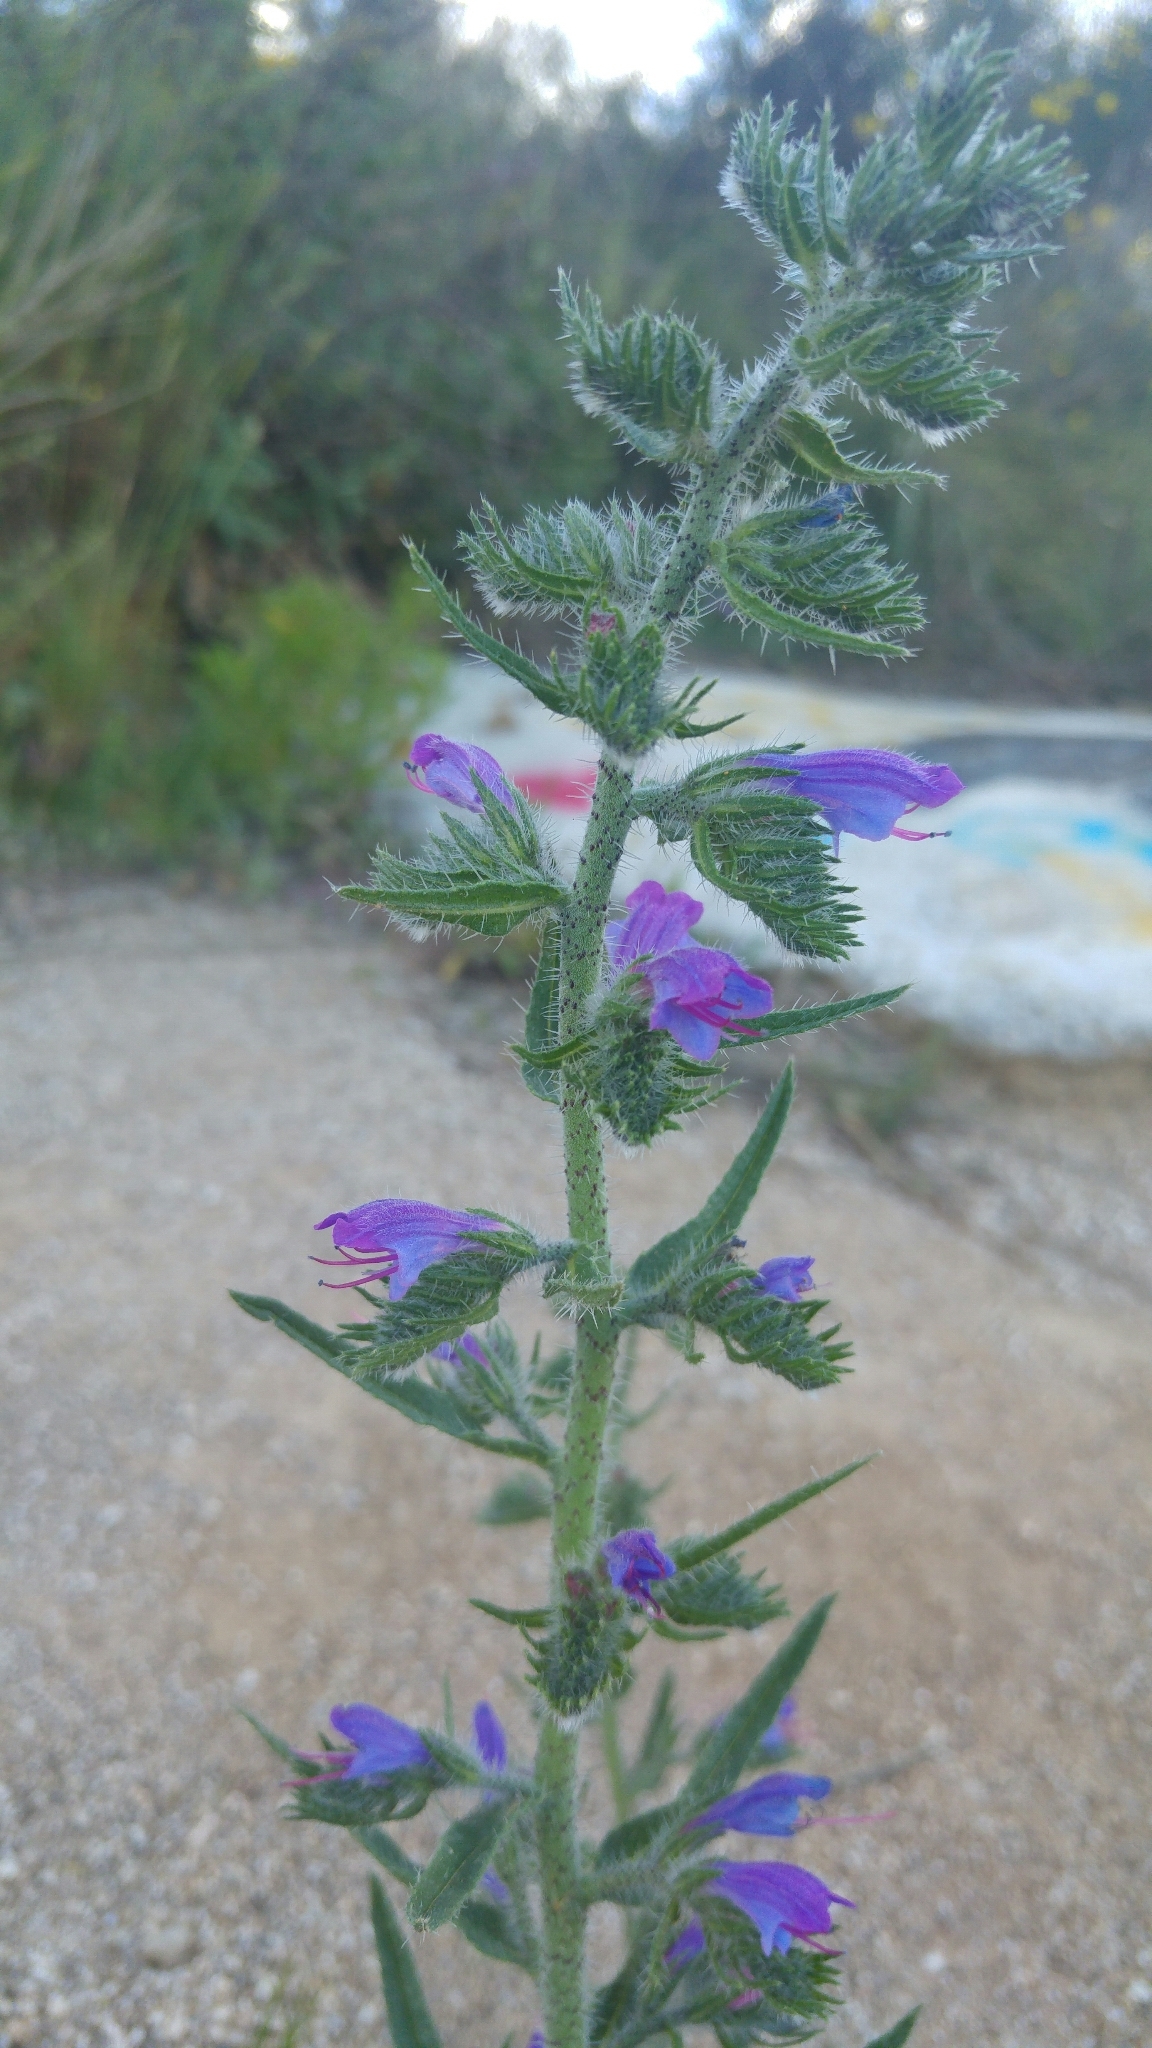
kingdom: Plantae
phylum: Tracheophyta
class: Magnoliopsida
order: Boraginales
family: Boraginaceae
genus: Echium
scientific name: Echium vulgare
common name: Common viper's bugloss
